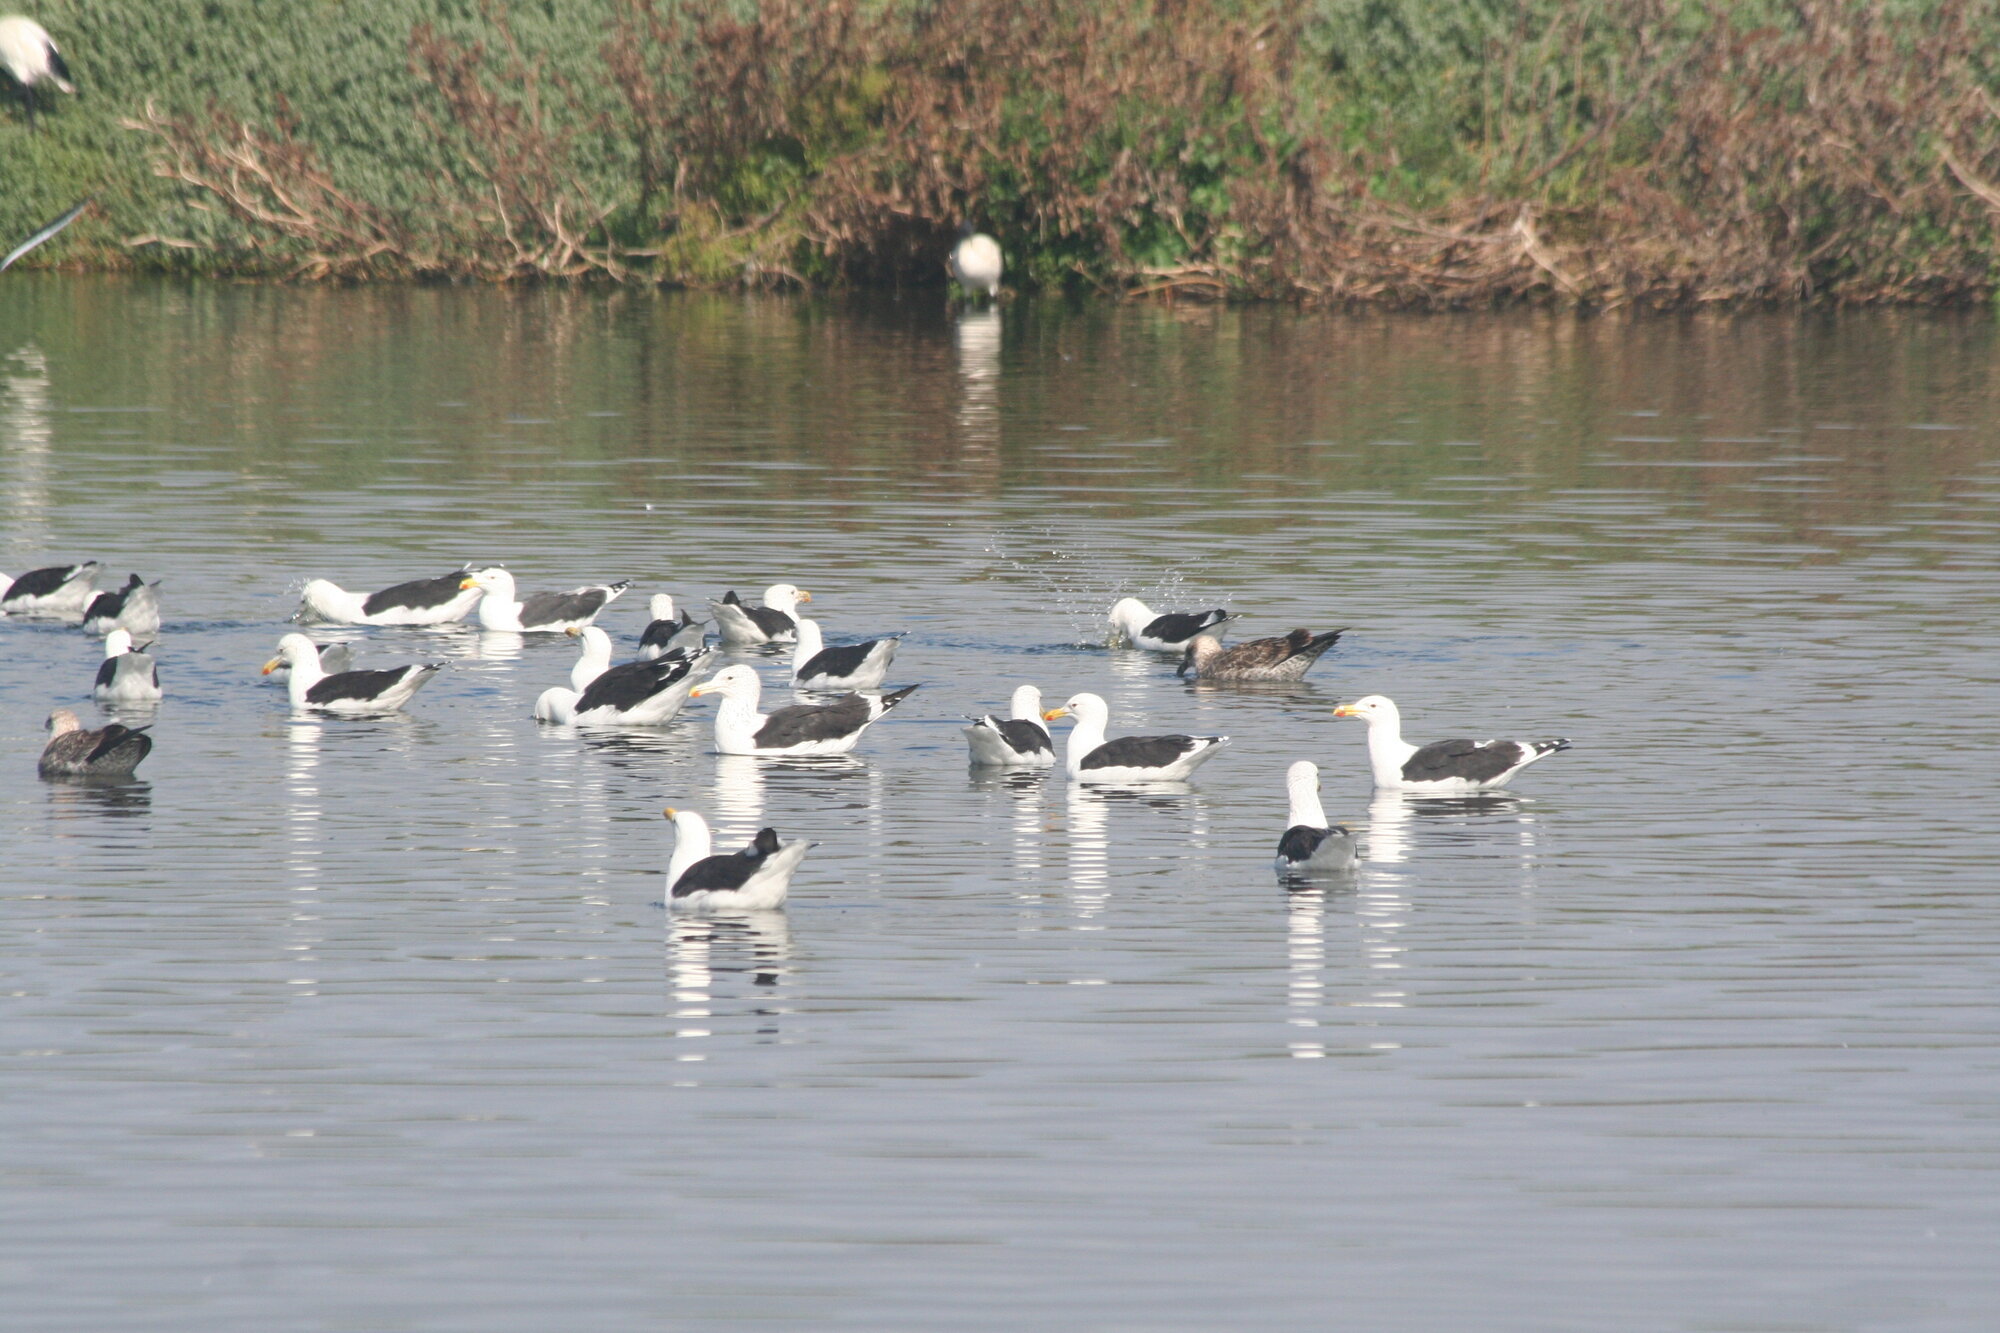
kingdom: Animalia
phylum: Chordata
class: Aves
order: Charadriiformes
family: Laridae
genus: Larus
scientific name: Larus dominicanus
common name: Kelp gull
